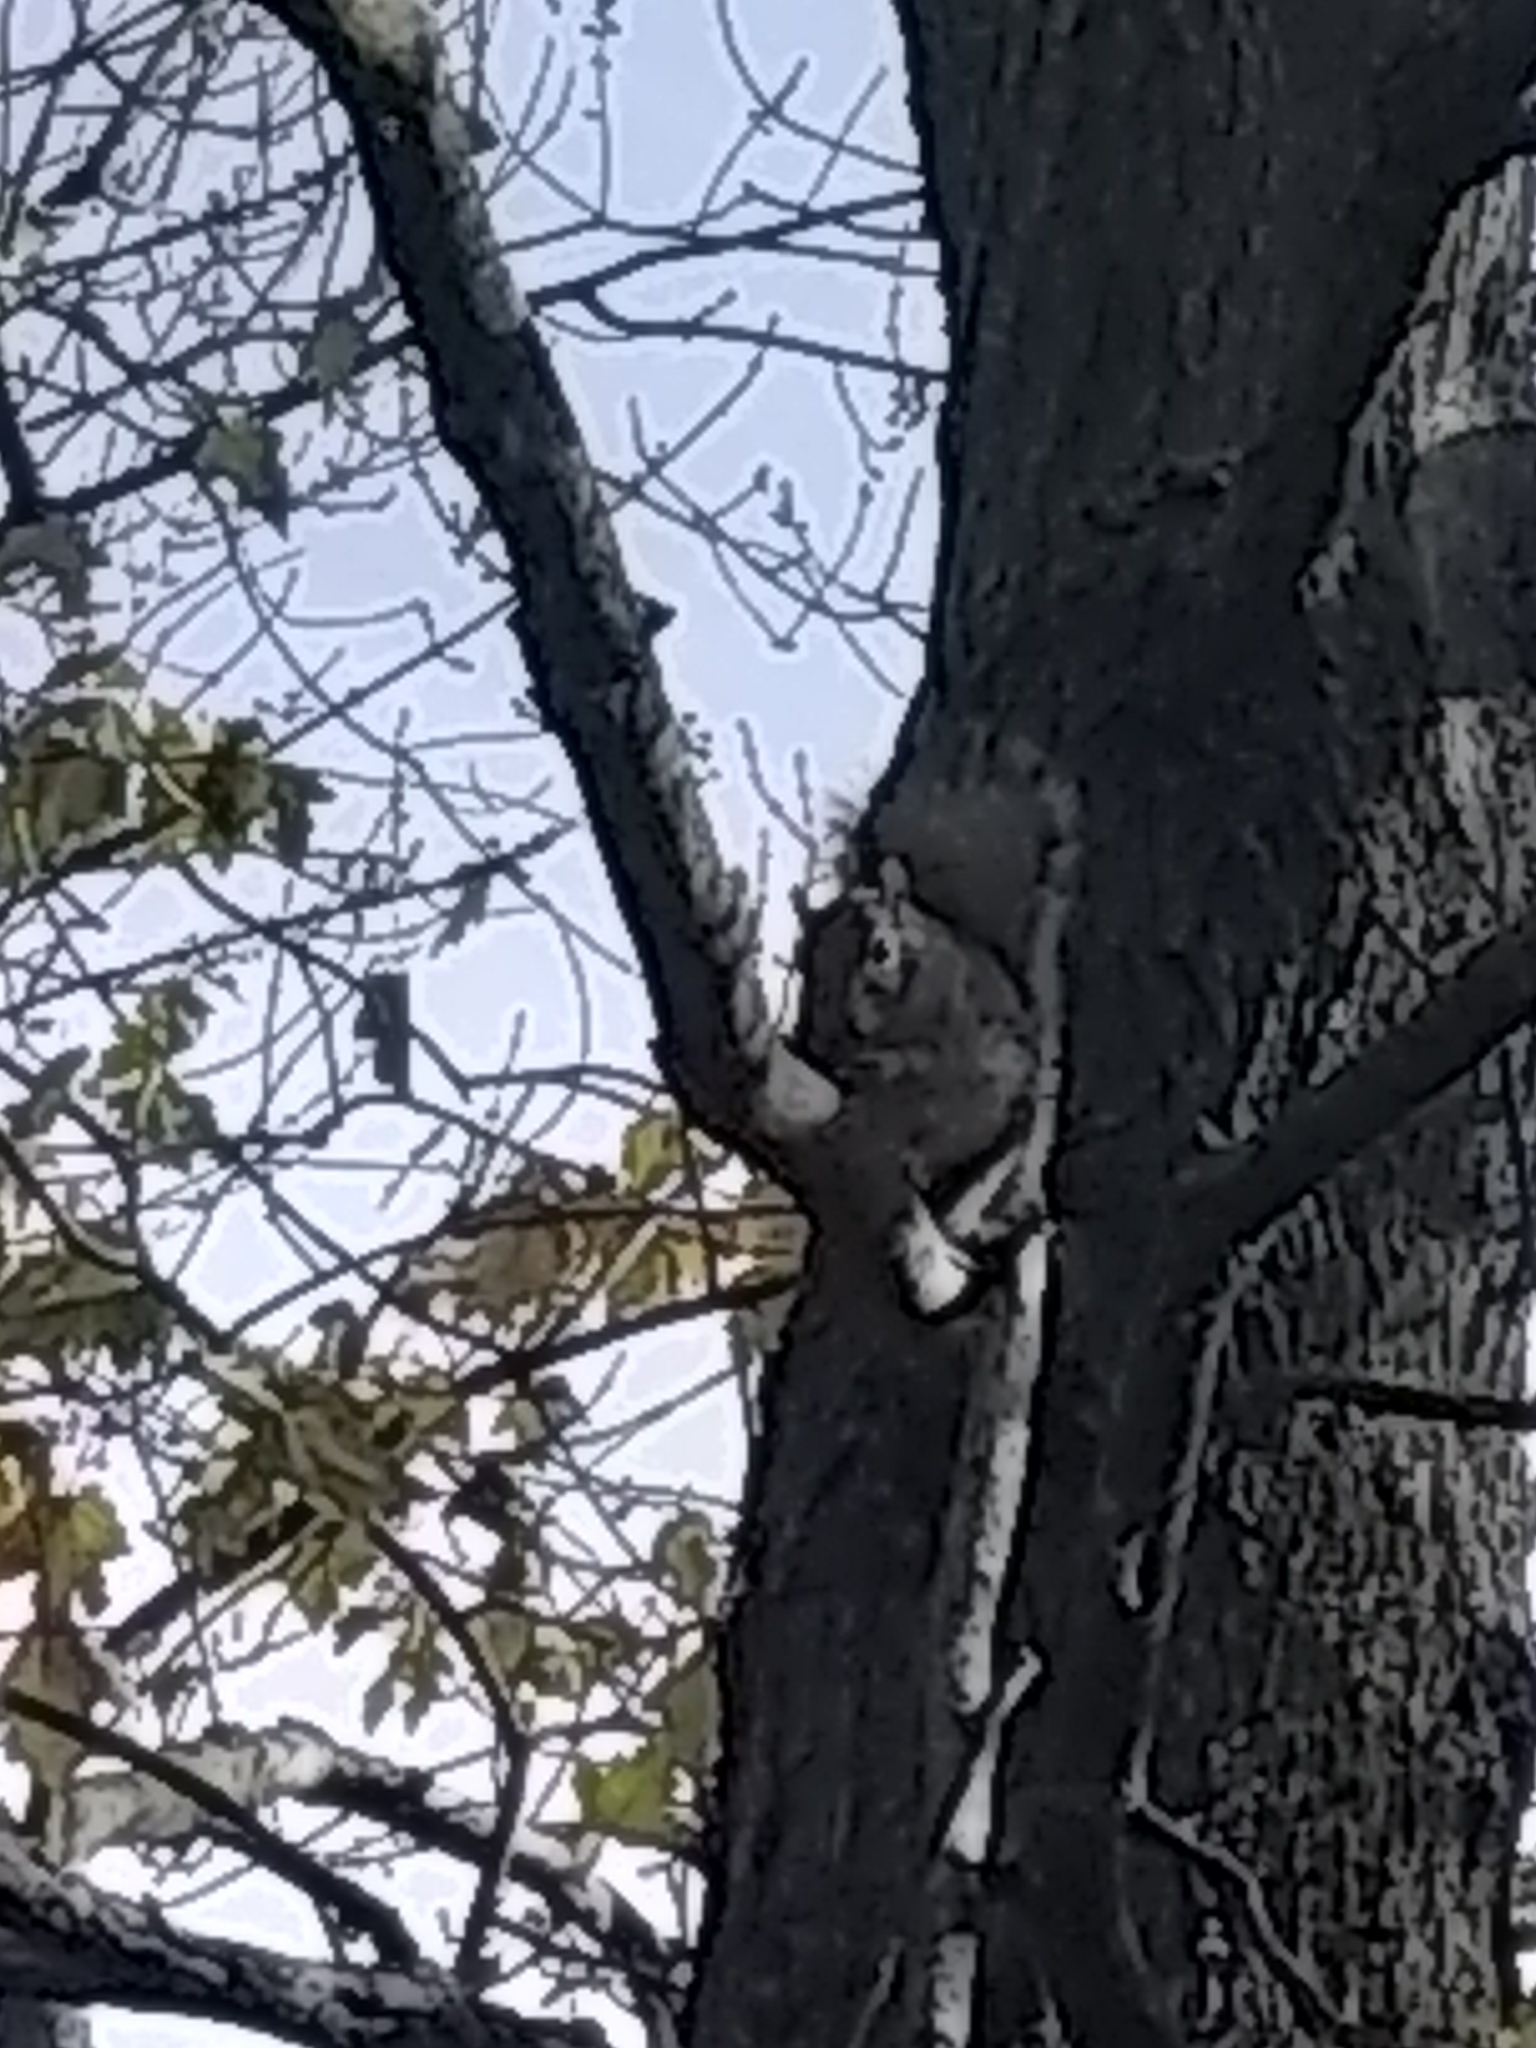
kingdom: Animalia
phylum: Chordata
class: Mammalia
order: Rodentia
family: Sciuridae
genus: Sciurus
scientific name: Sciurus carolinensis
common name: Eastern gray squirrel
